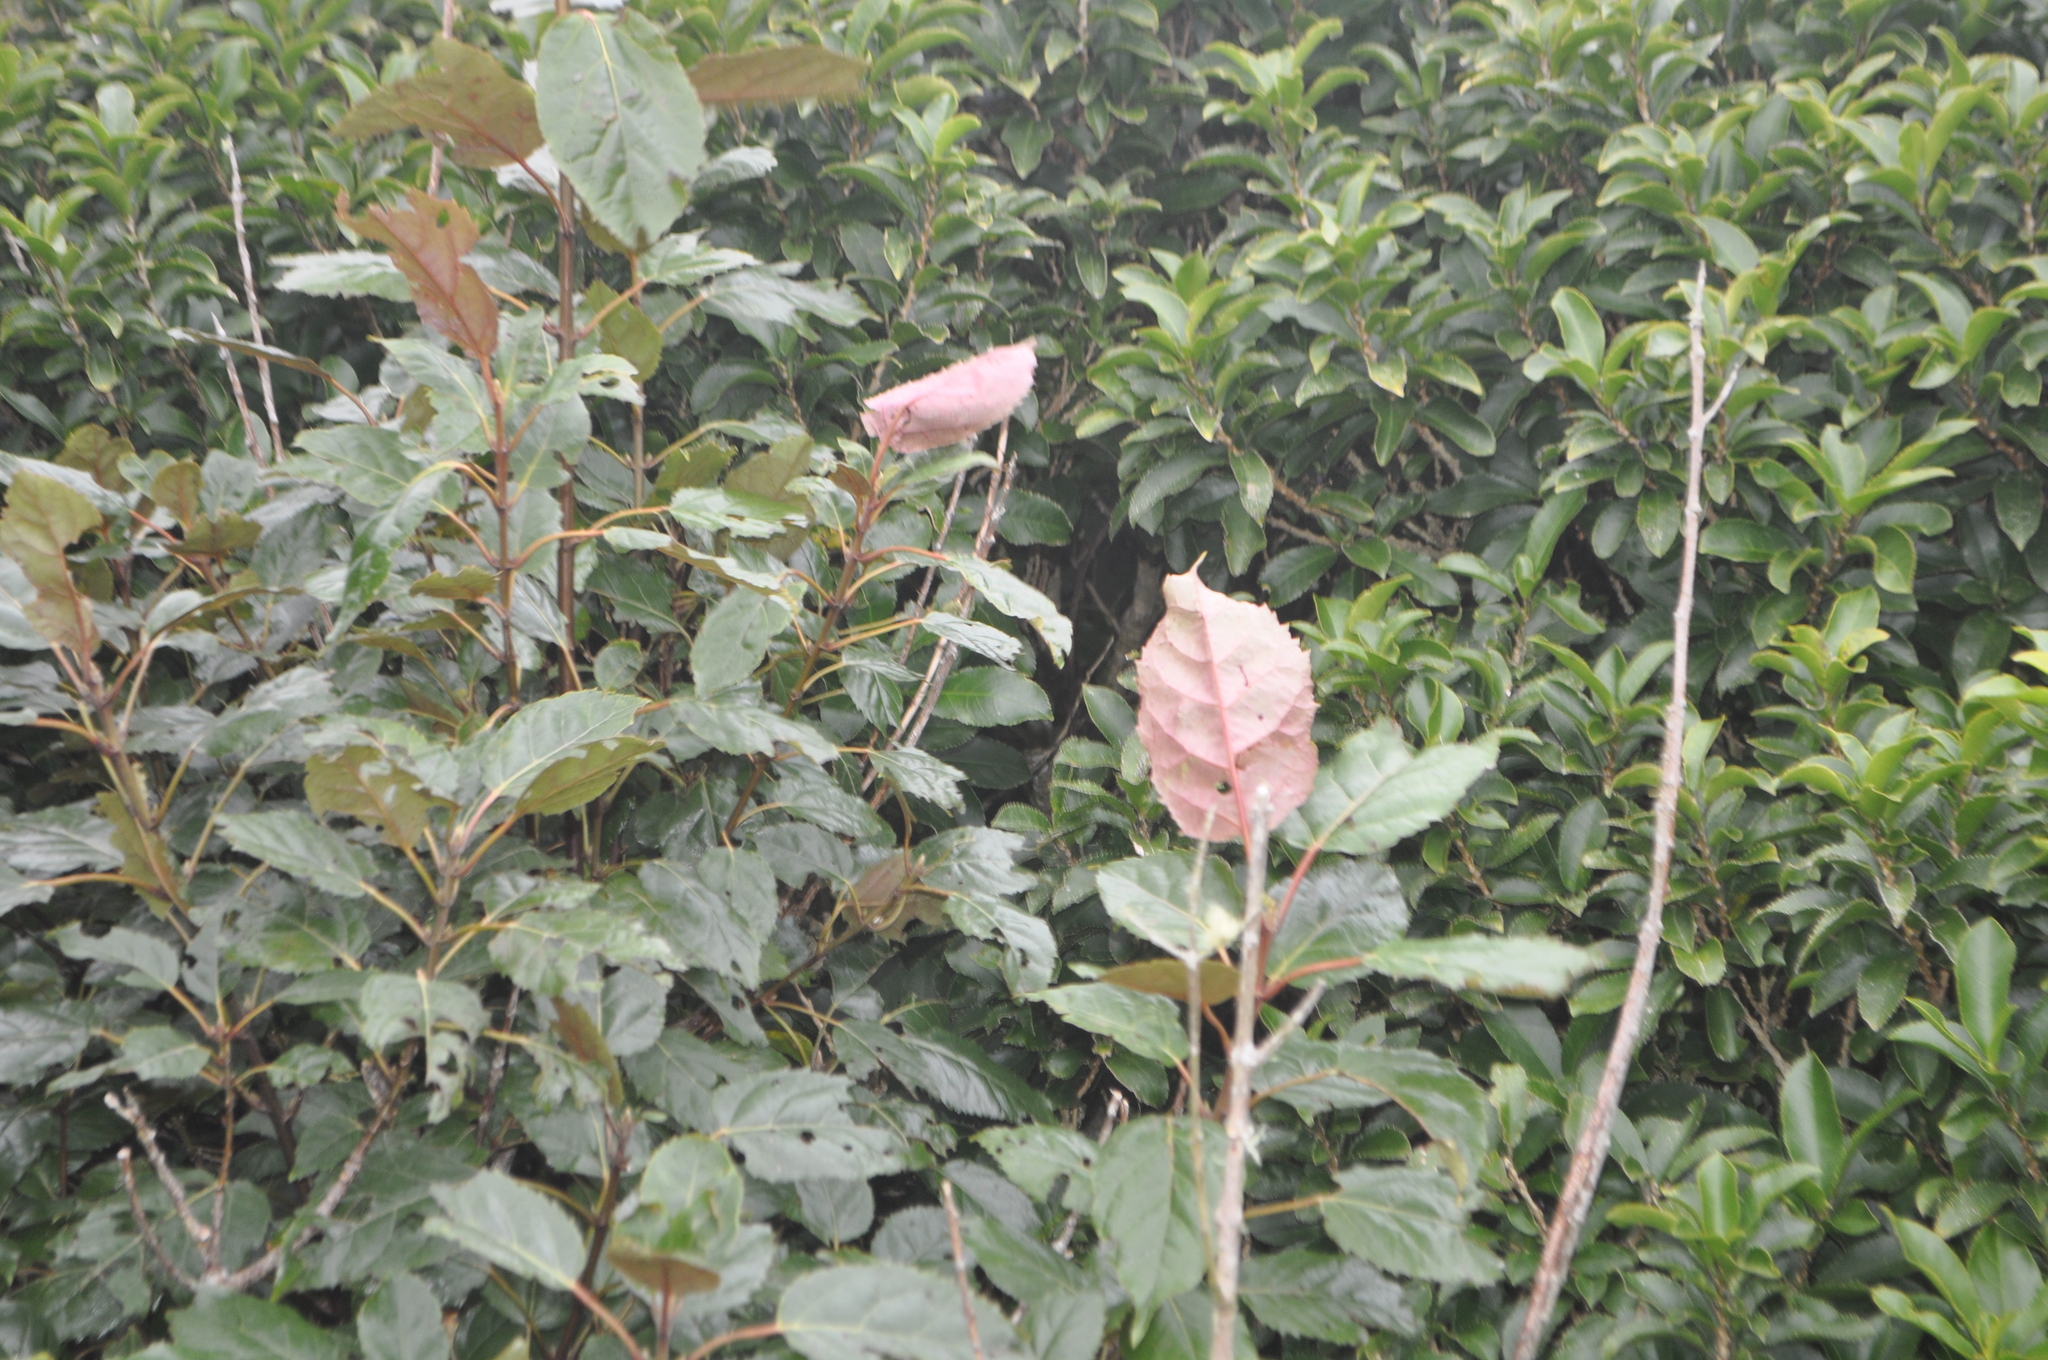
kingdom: Plantae
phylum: Tracheophyta
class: Magnoliopsida
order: Oxalidales
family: Elaeocarpaceae
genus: Aristotelia
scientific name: Aristotelia serrata
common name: New zealand wineberry
